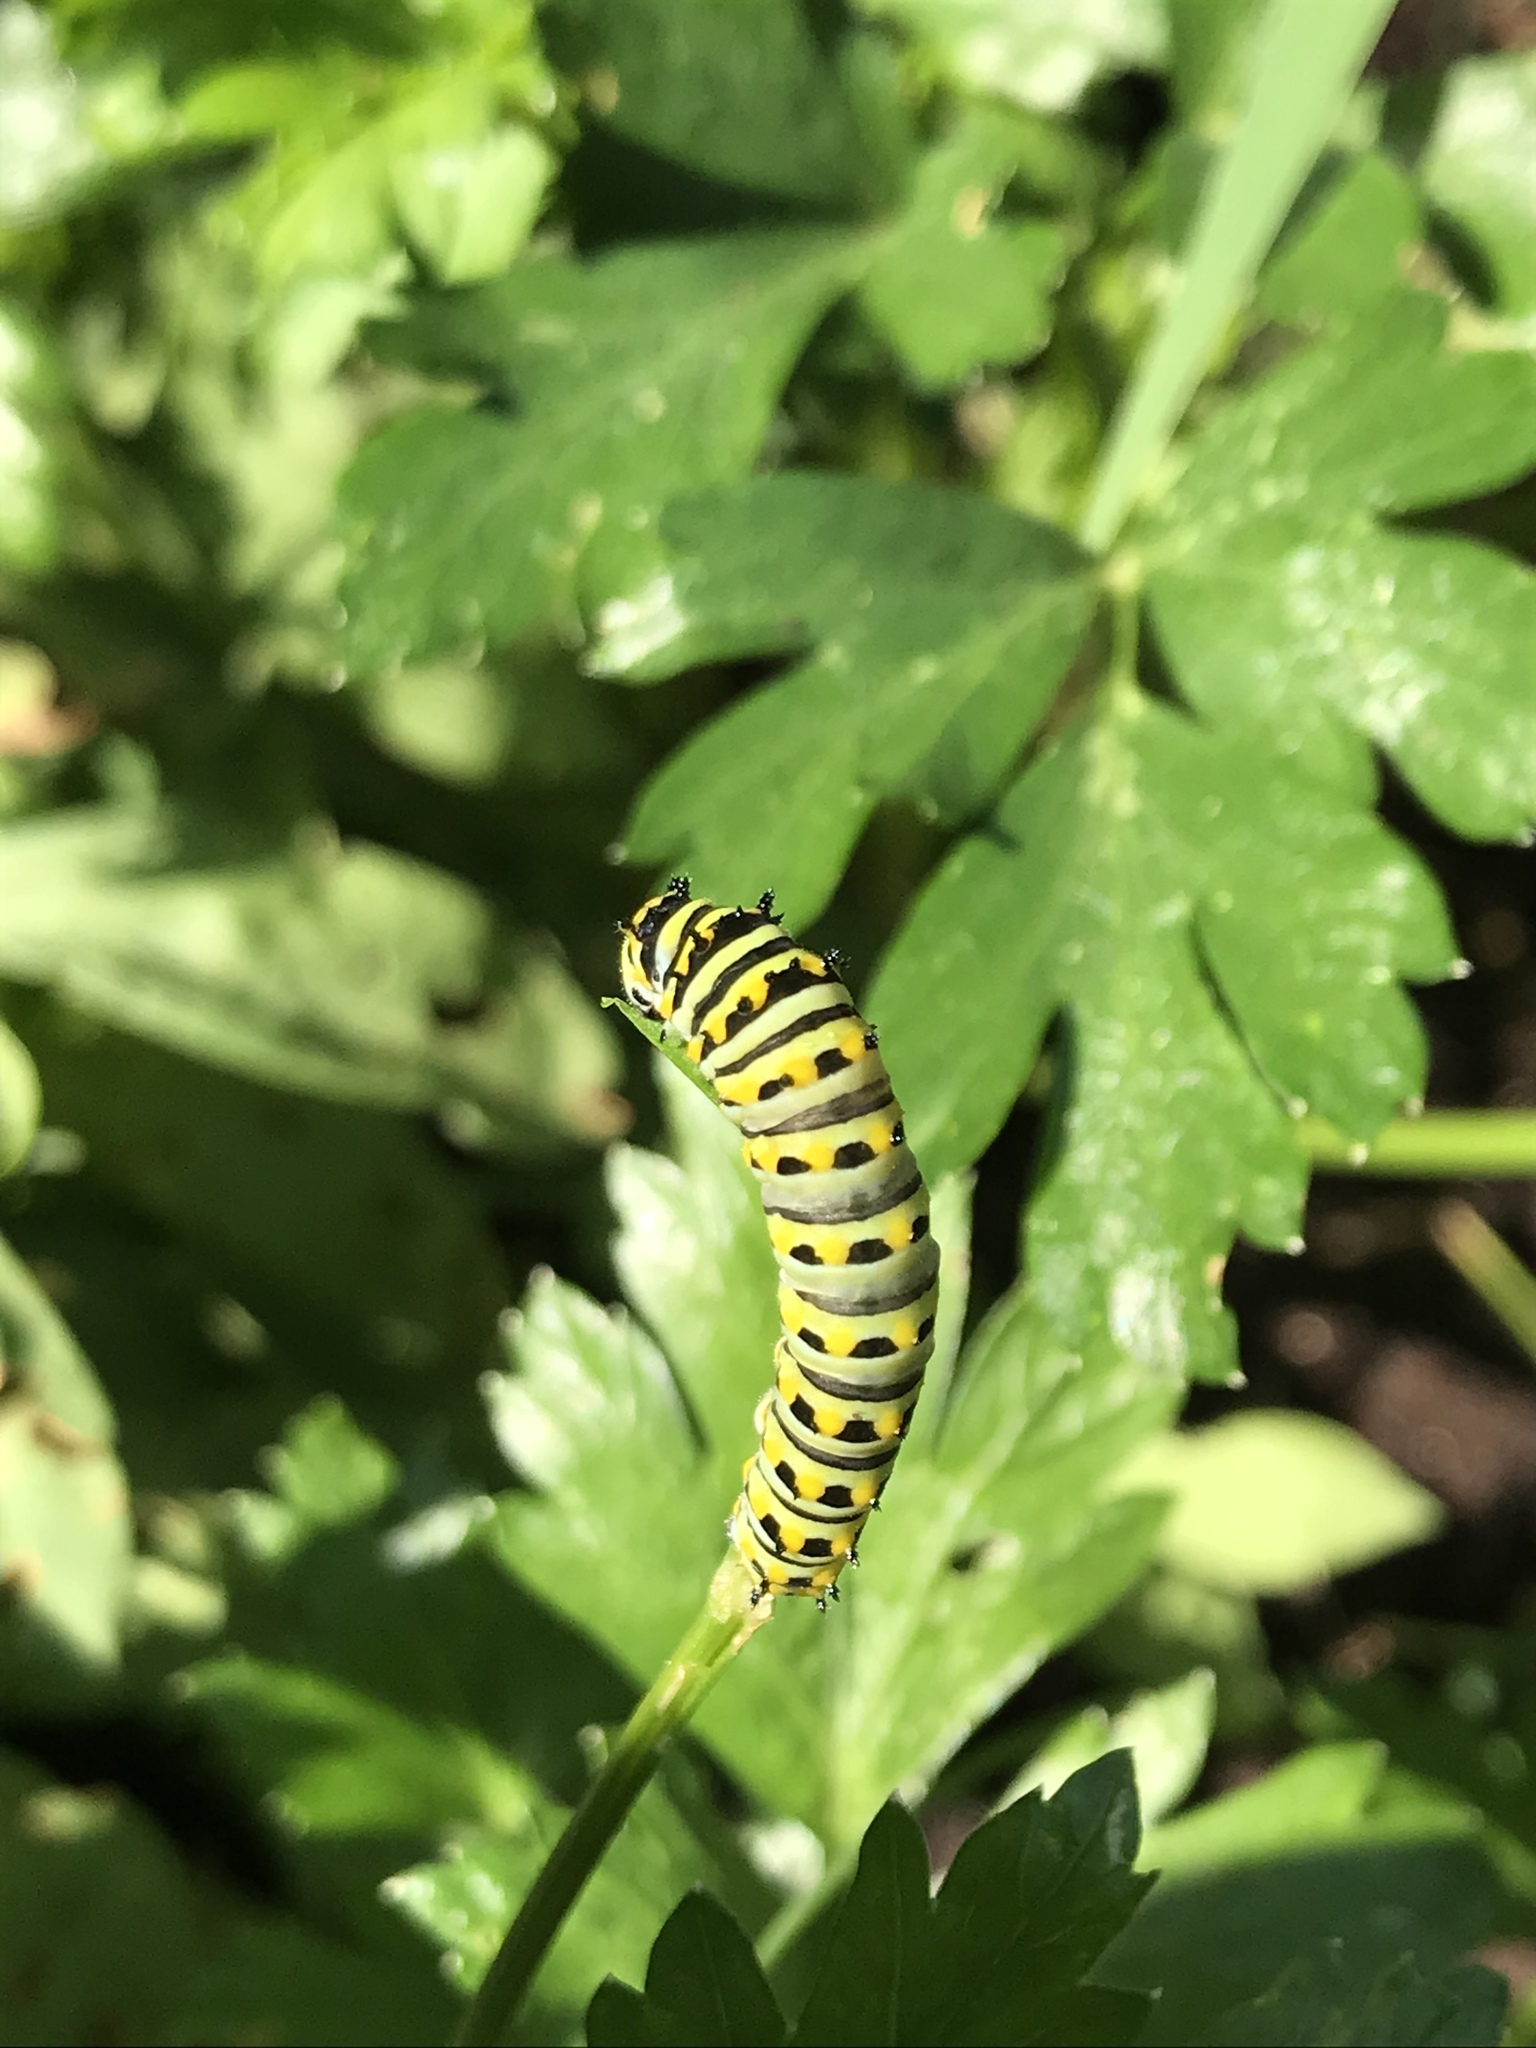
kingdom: Animalia
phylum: Arthropoda
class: Insecta
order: Lepidoptera
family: Papilionidae
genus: Papilio
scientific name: Papilio polyxenes
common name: Black swallowtail
